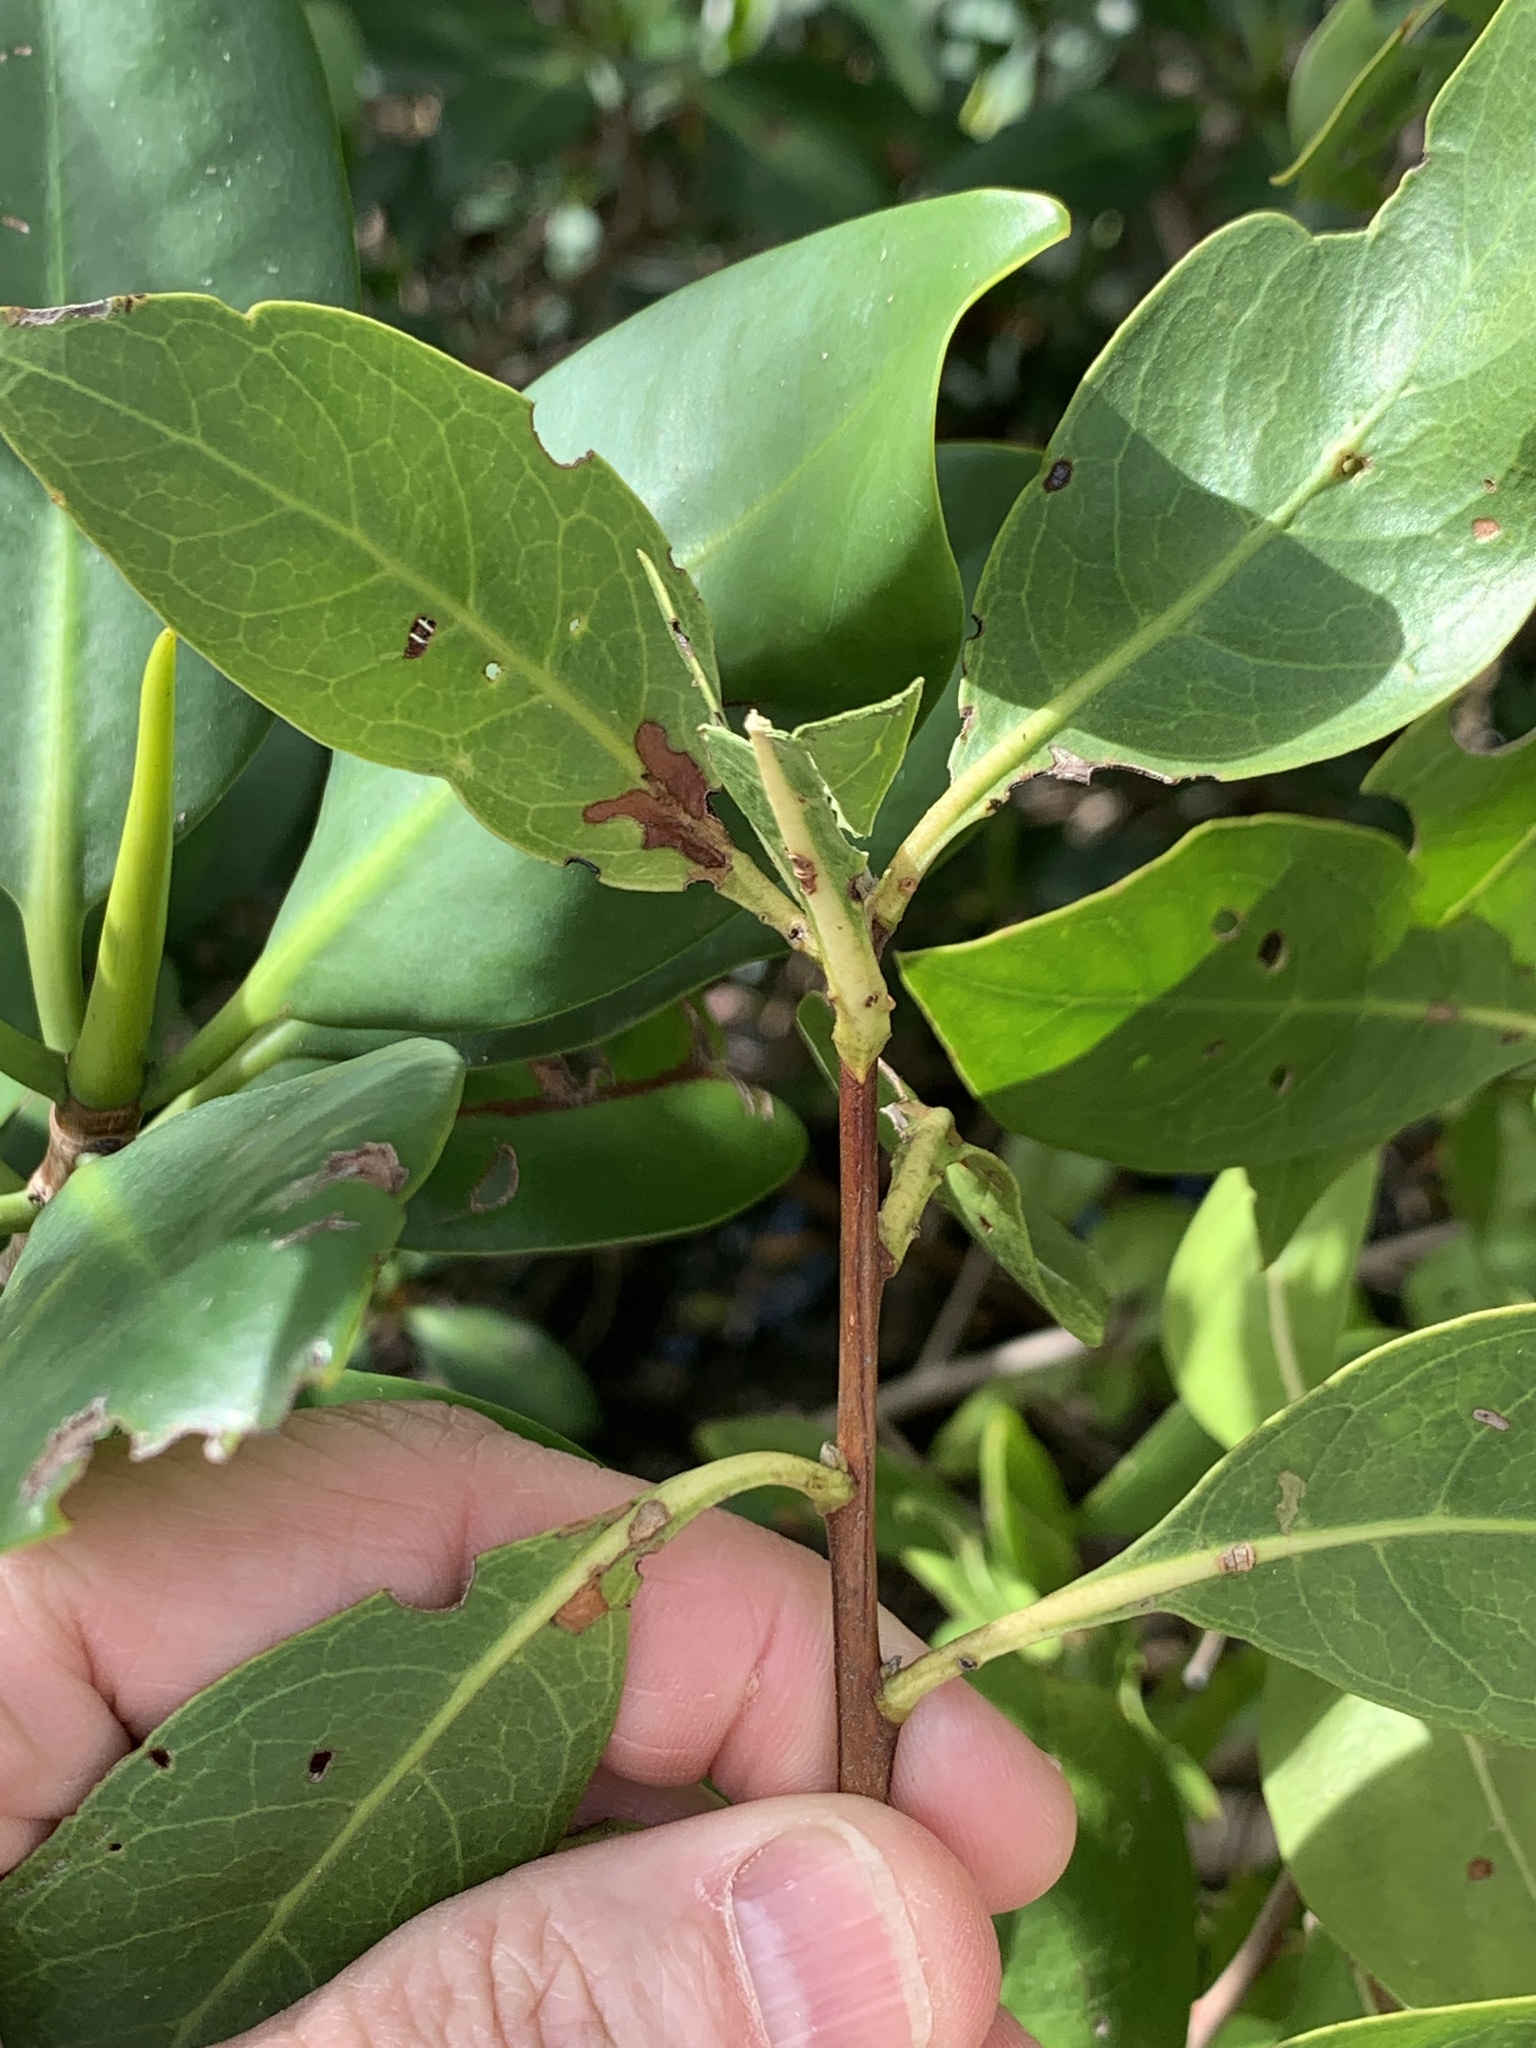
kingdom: Plantae
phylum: Tracheophyta
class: Magnoliopsida
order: Myrtales
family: Combretaceae
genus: Conocarpus
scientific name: Conocarpus erectus
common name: Button mangrove
